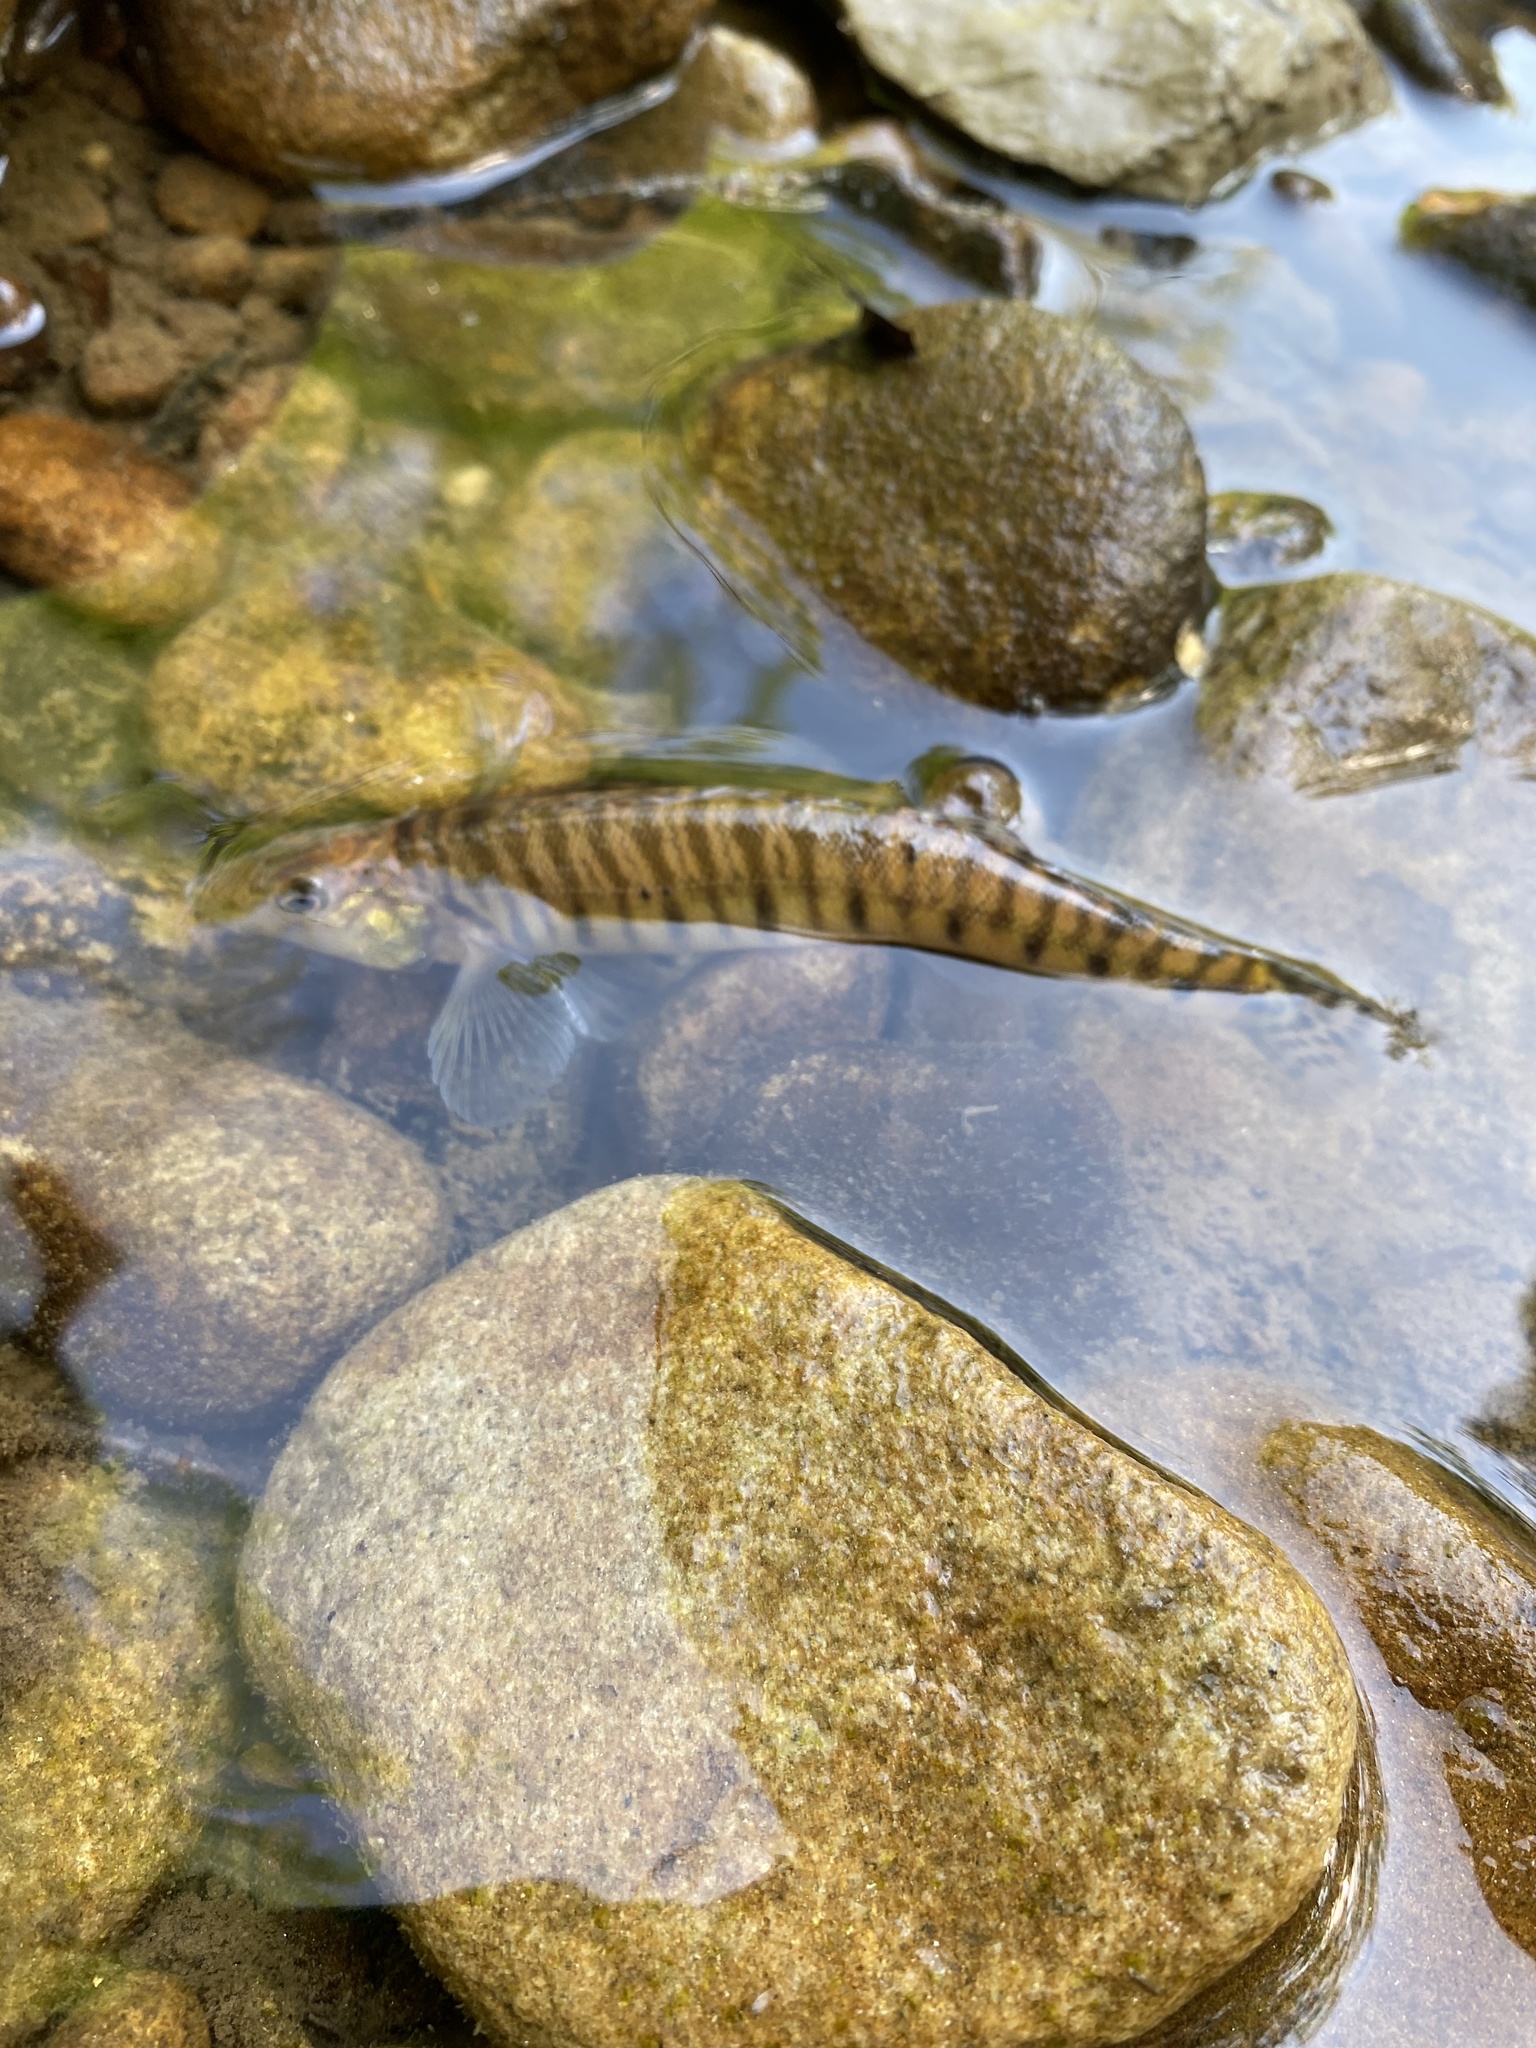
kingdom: Animalia
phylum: Chordata
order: Perciformes
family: Percidae
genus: Percina
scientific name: Percina caprodes
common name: Logperch
